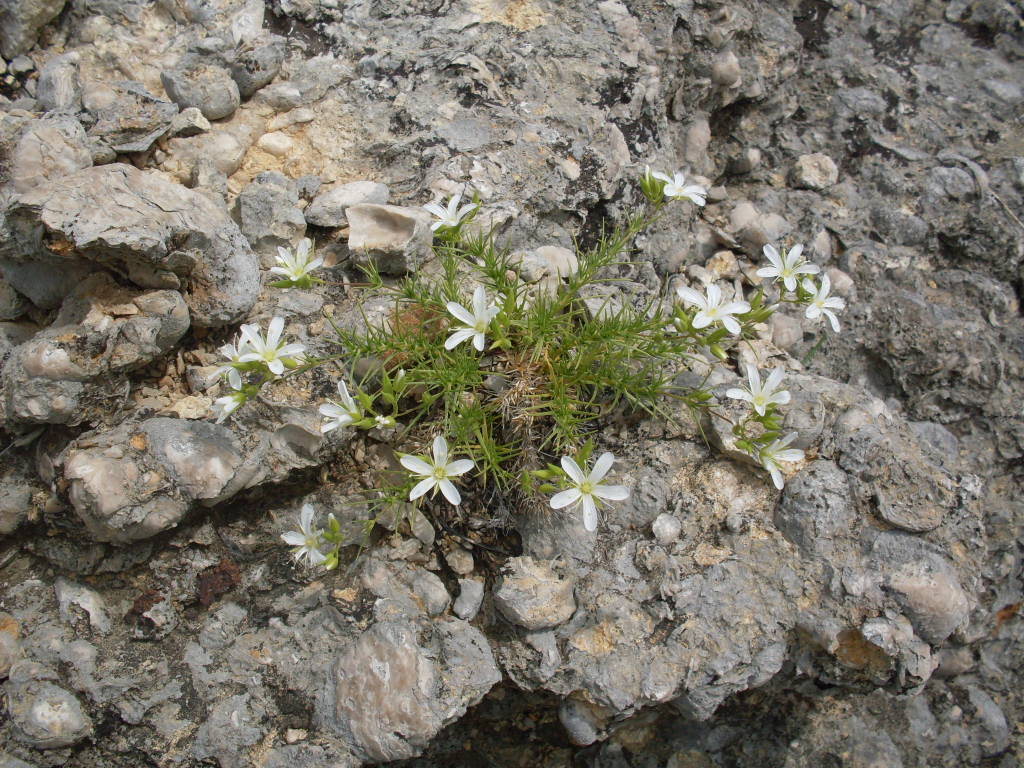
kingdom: Plantae
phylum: Tracheophyta
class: Magnoliopsida
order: Caryophyllales
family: Caryophyllaceae
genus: Sabulina
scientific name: Sabulina michauxii
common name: Michaux's stitchwort
